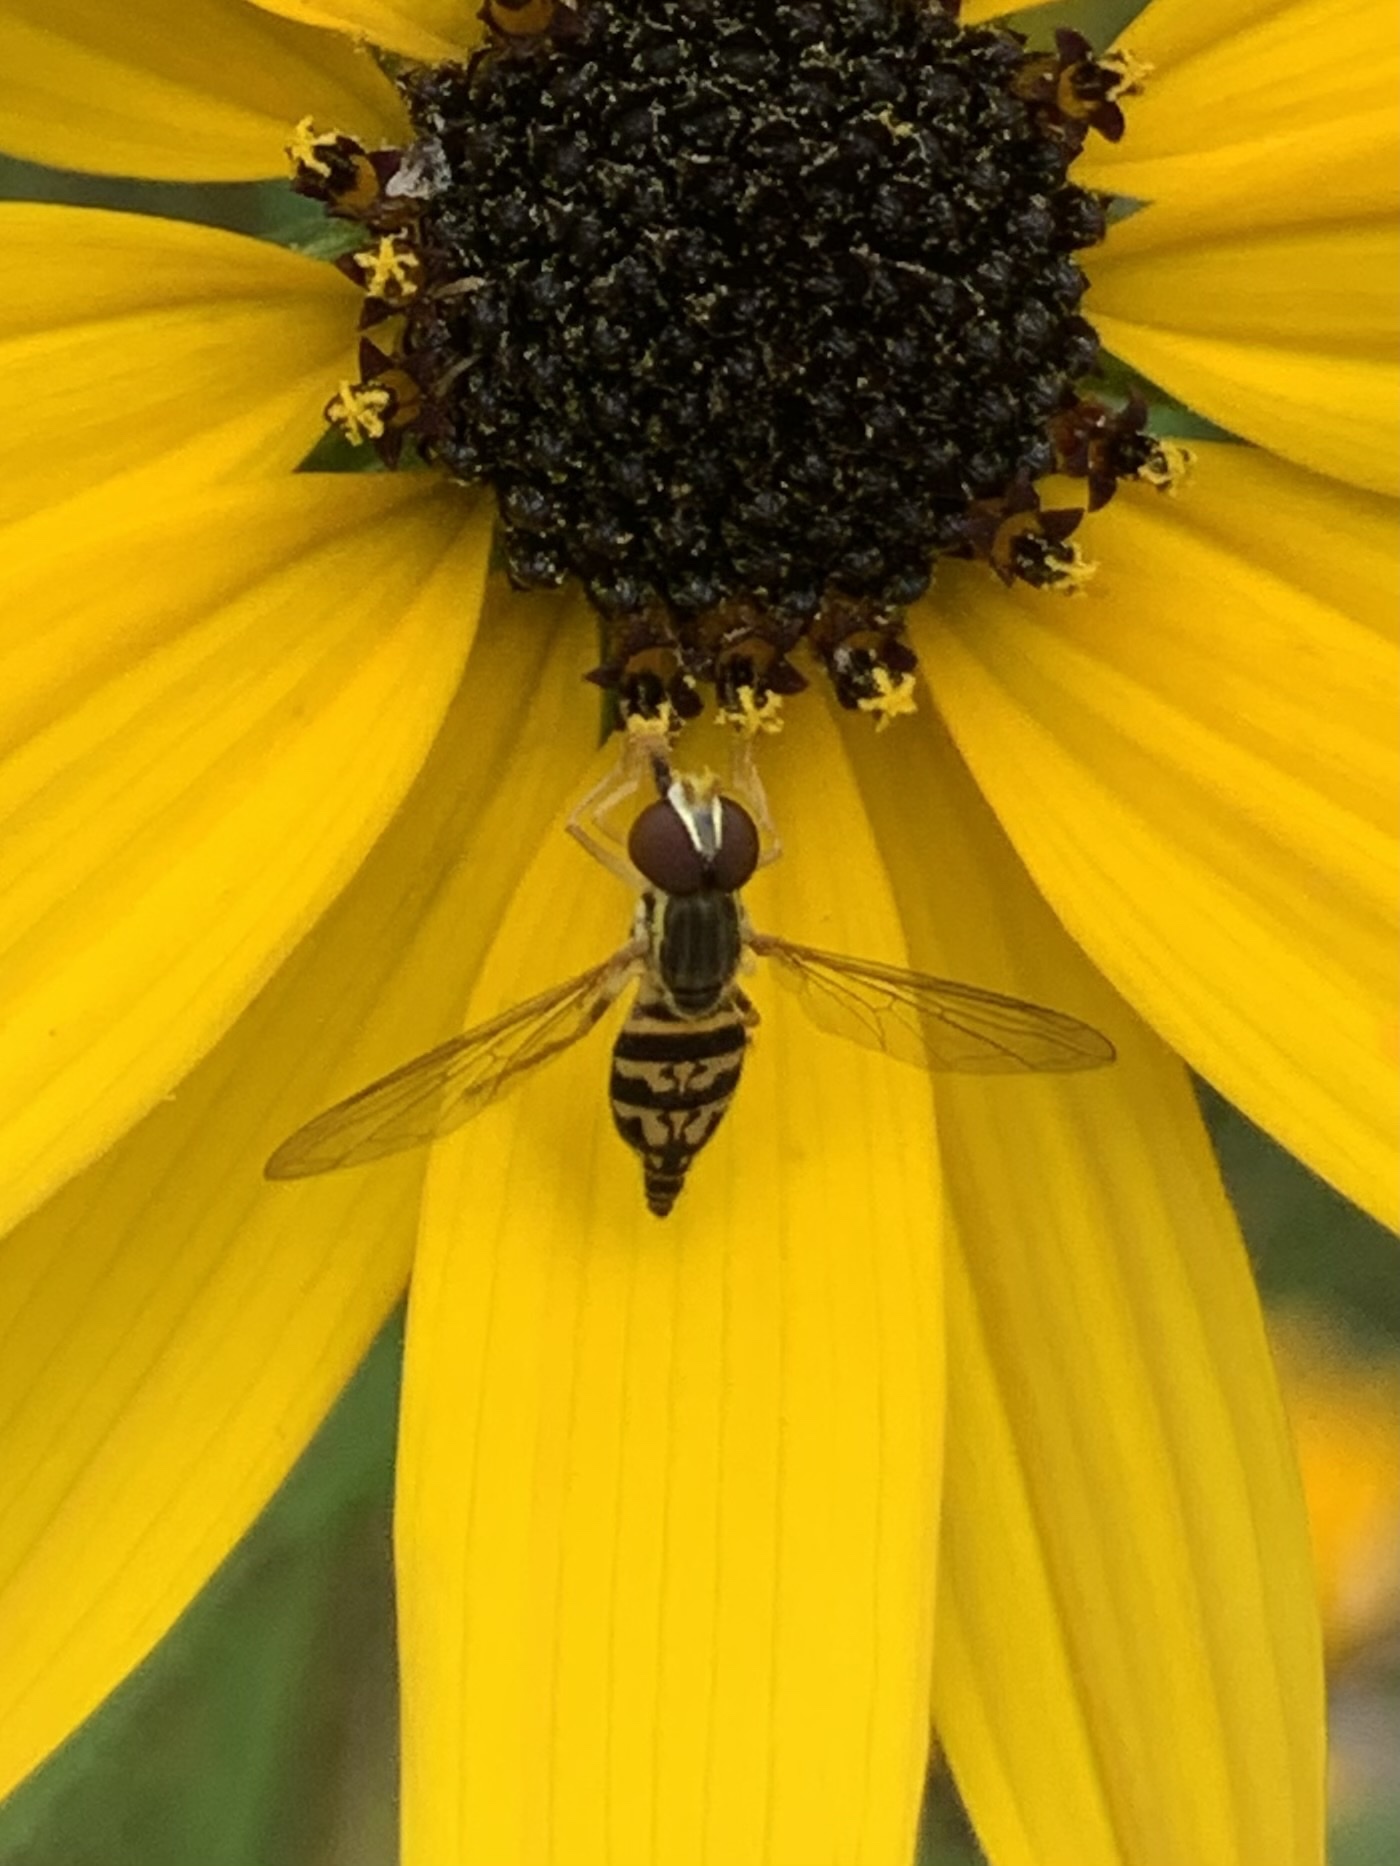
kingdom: Animalia
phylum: Arthropoda
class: Insecta
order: Diptera
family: Syrphidae
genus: Toxomerus
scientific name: Toxomerus geminatus
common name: Eastern calligrapher
